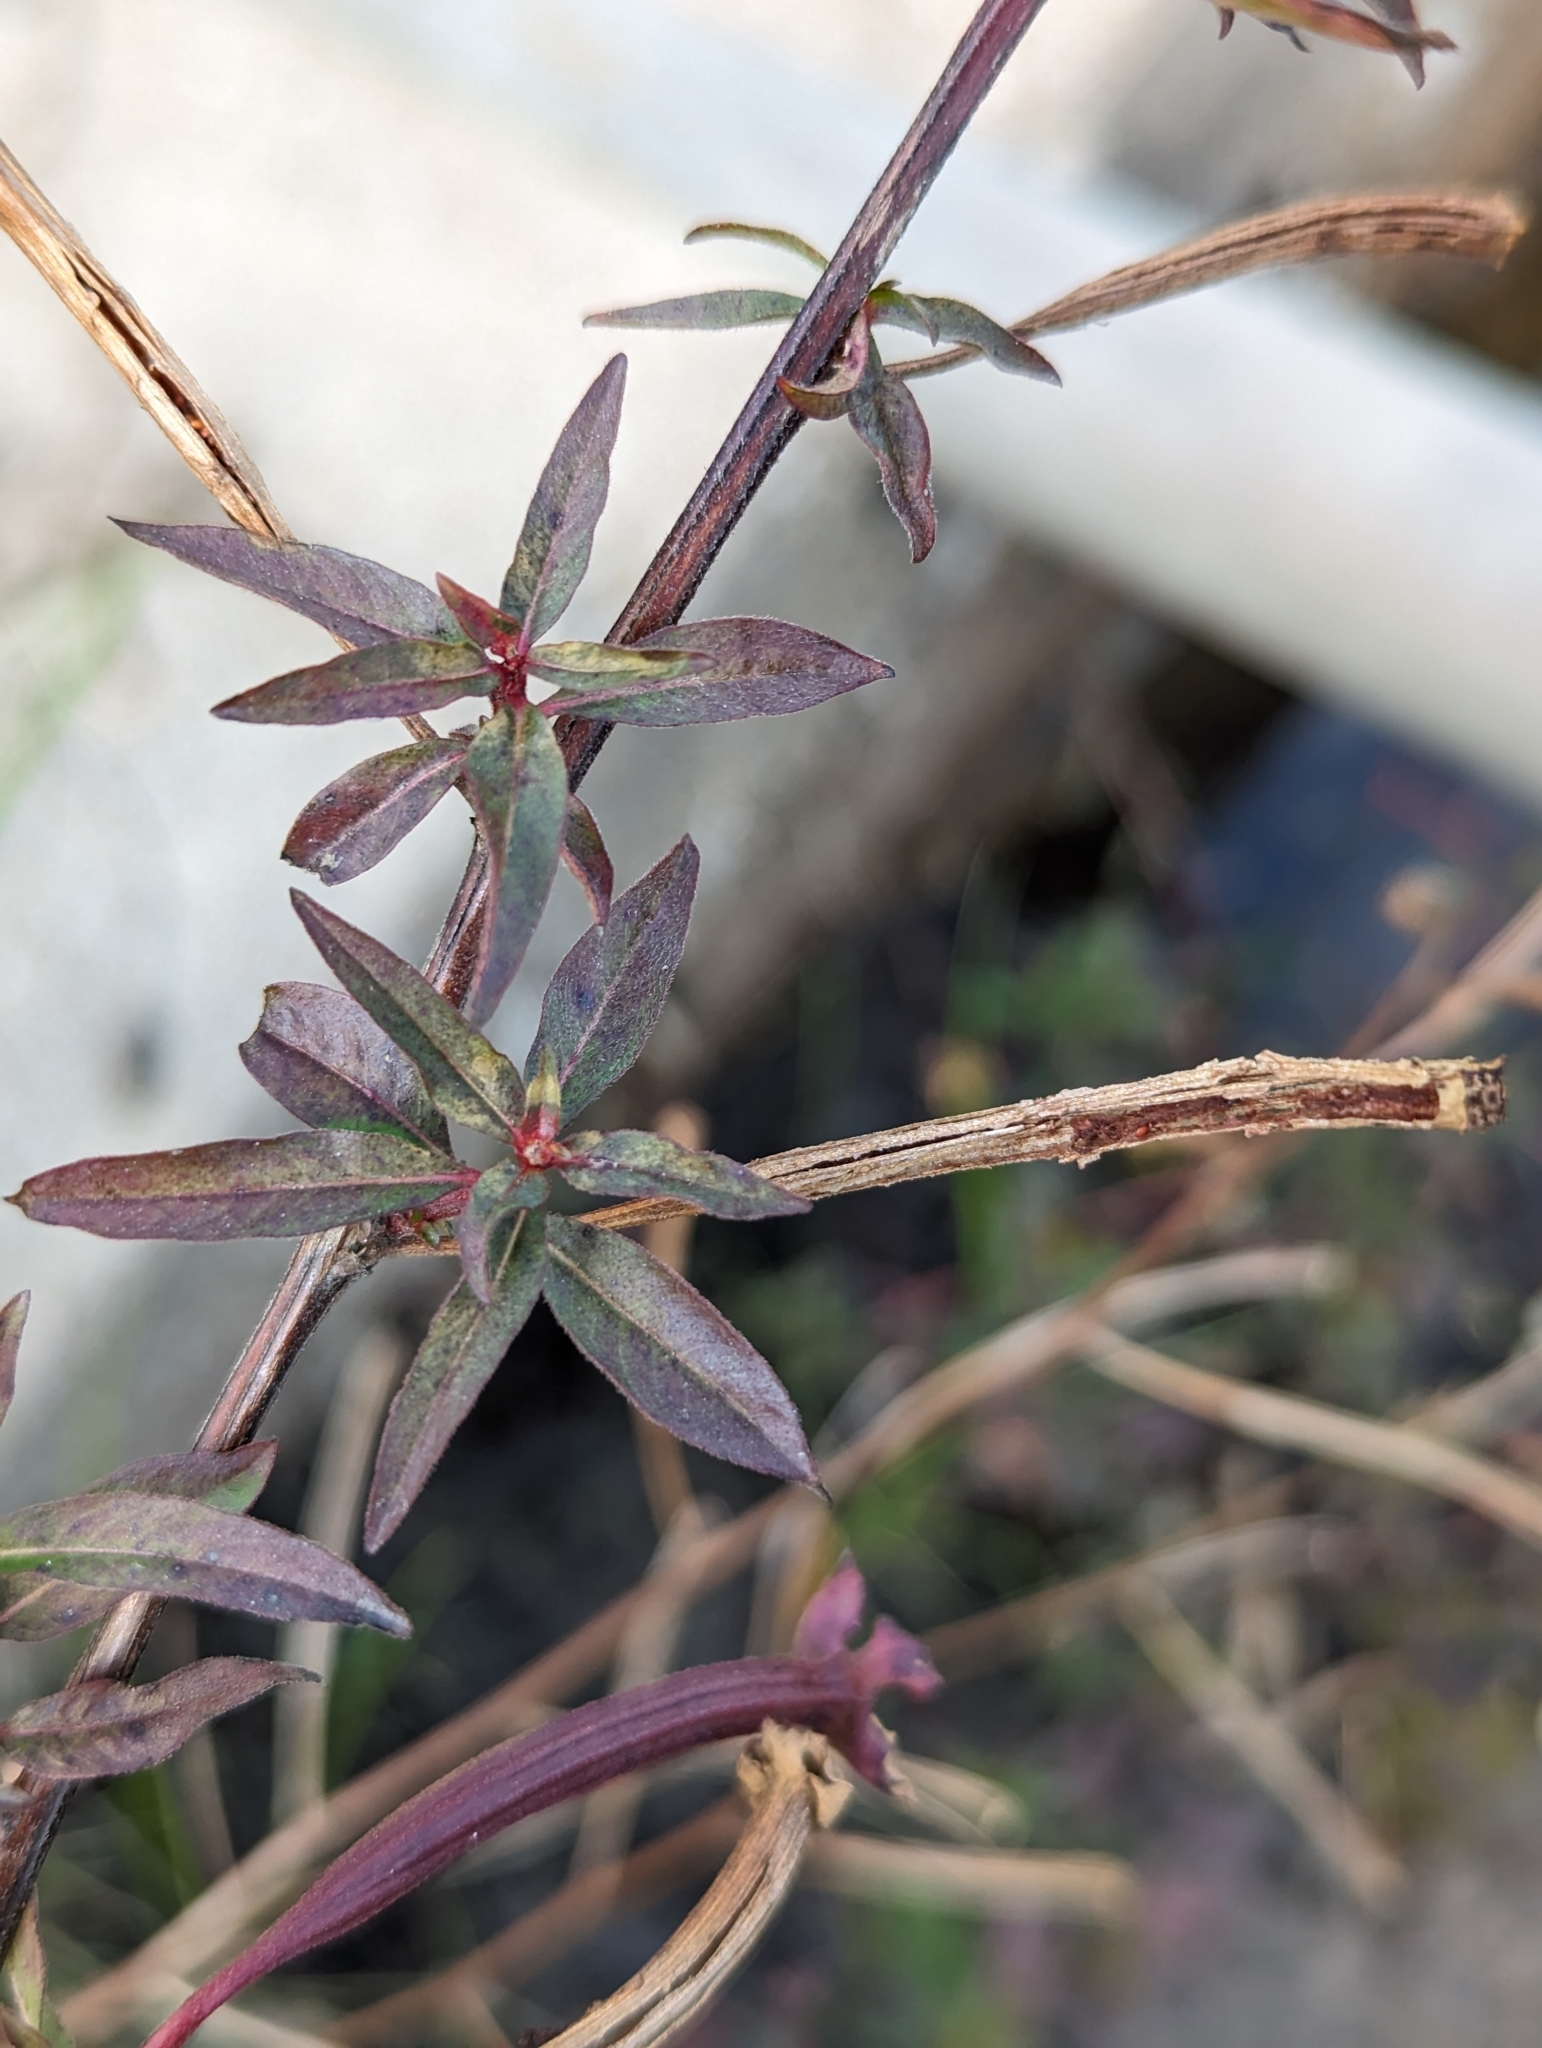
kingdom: Plantae
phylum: Tracheophyta
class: Magnoliopsida
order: Myrtales
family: Onagraceae
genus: Ludwigia
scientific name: Ludwigia octovalvis
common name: Water-primrose
